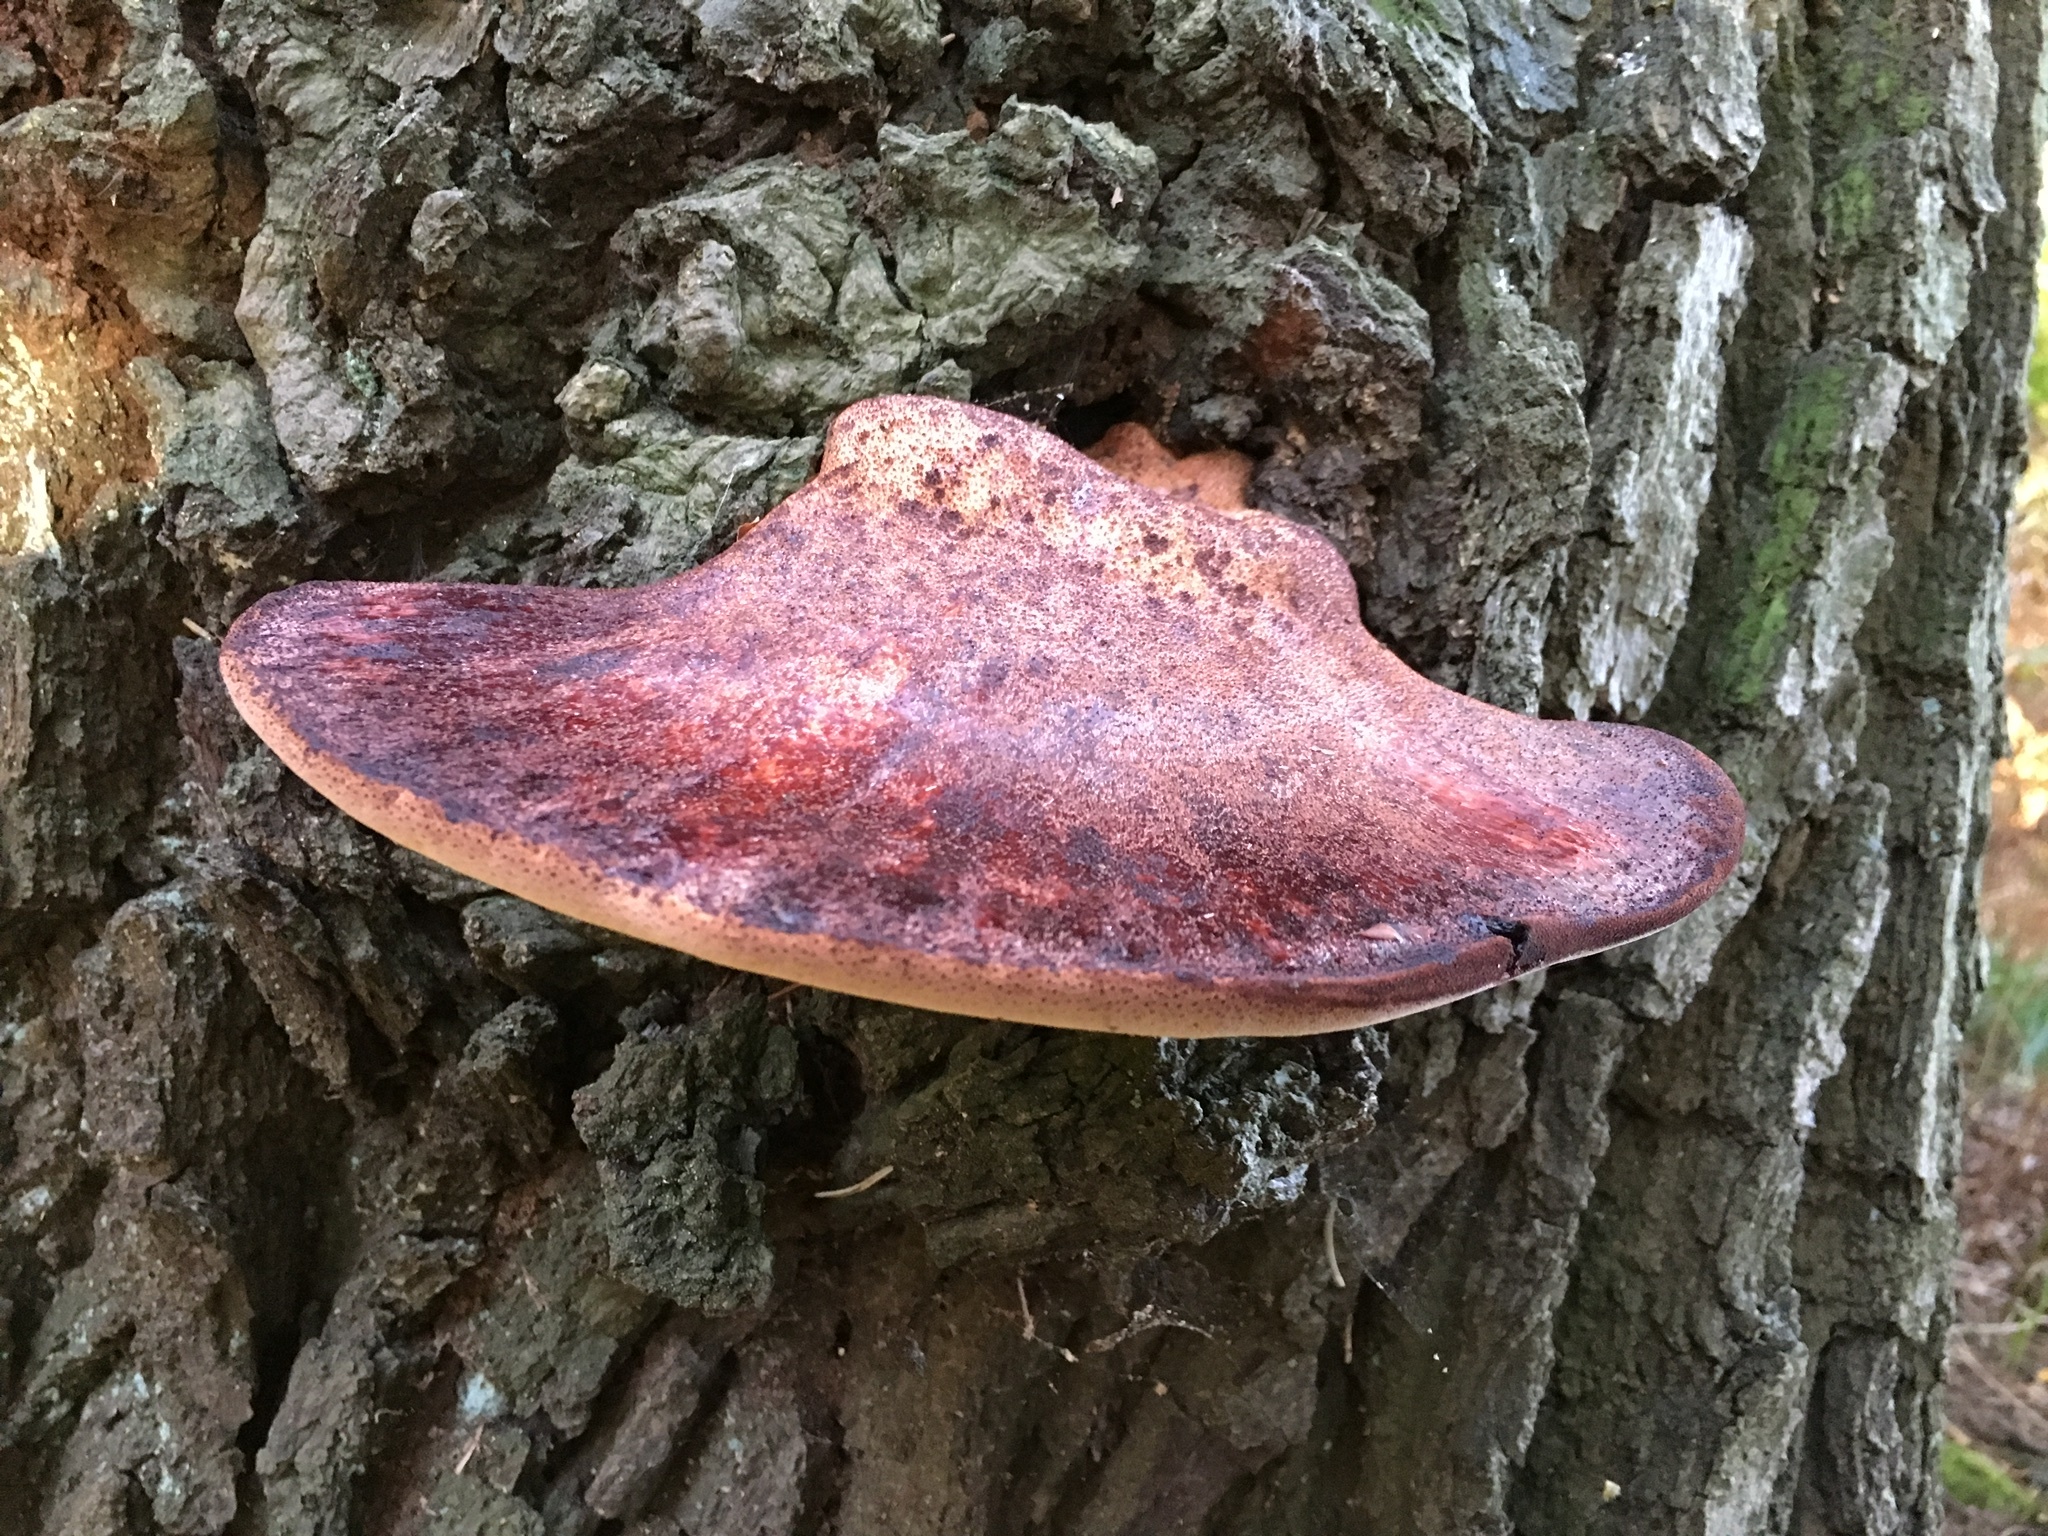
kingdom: Fungi
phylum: Basidiomycota
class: Agaricomycetes
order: Agaricales
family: Fistulinaceae
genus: Fistulina
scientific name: Fistulina hepatica
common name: Beef-steak fungus
